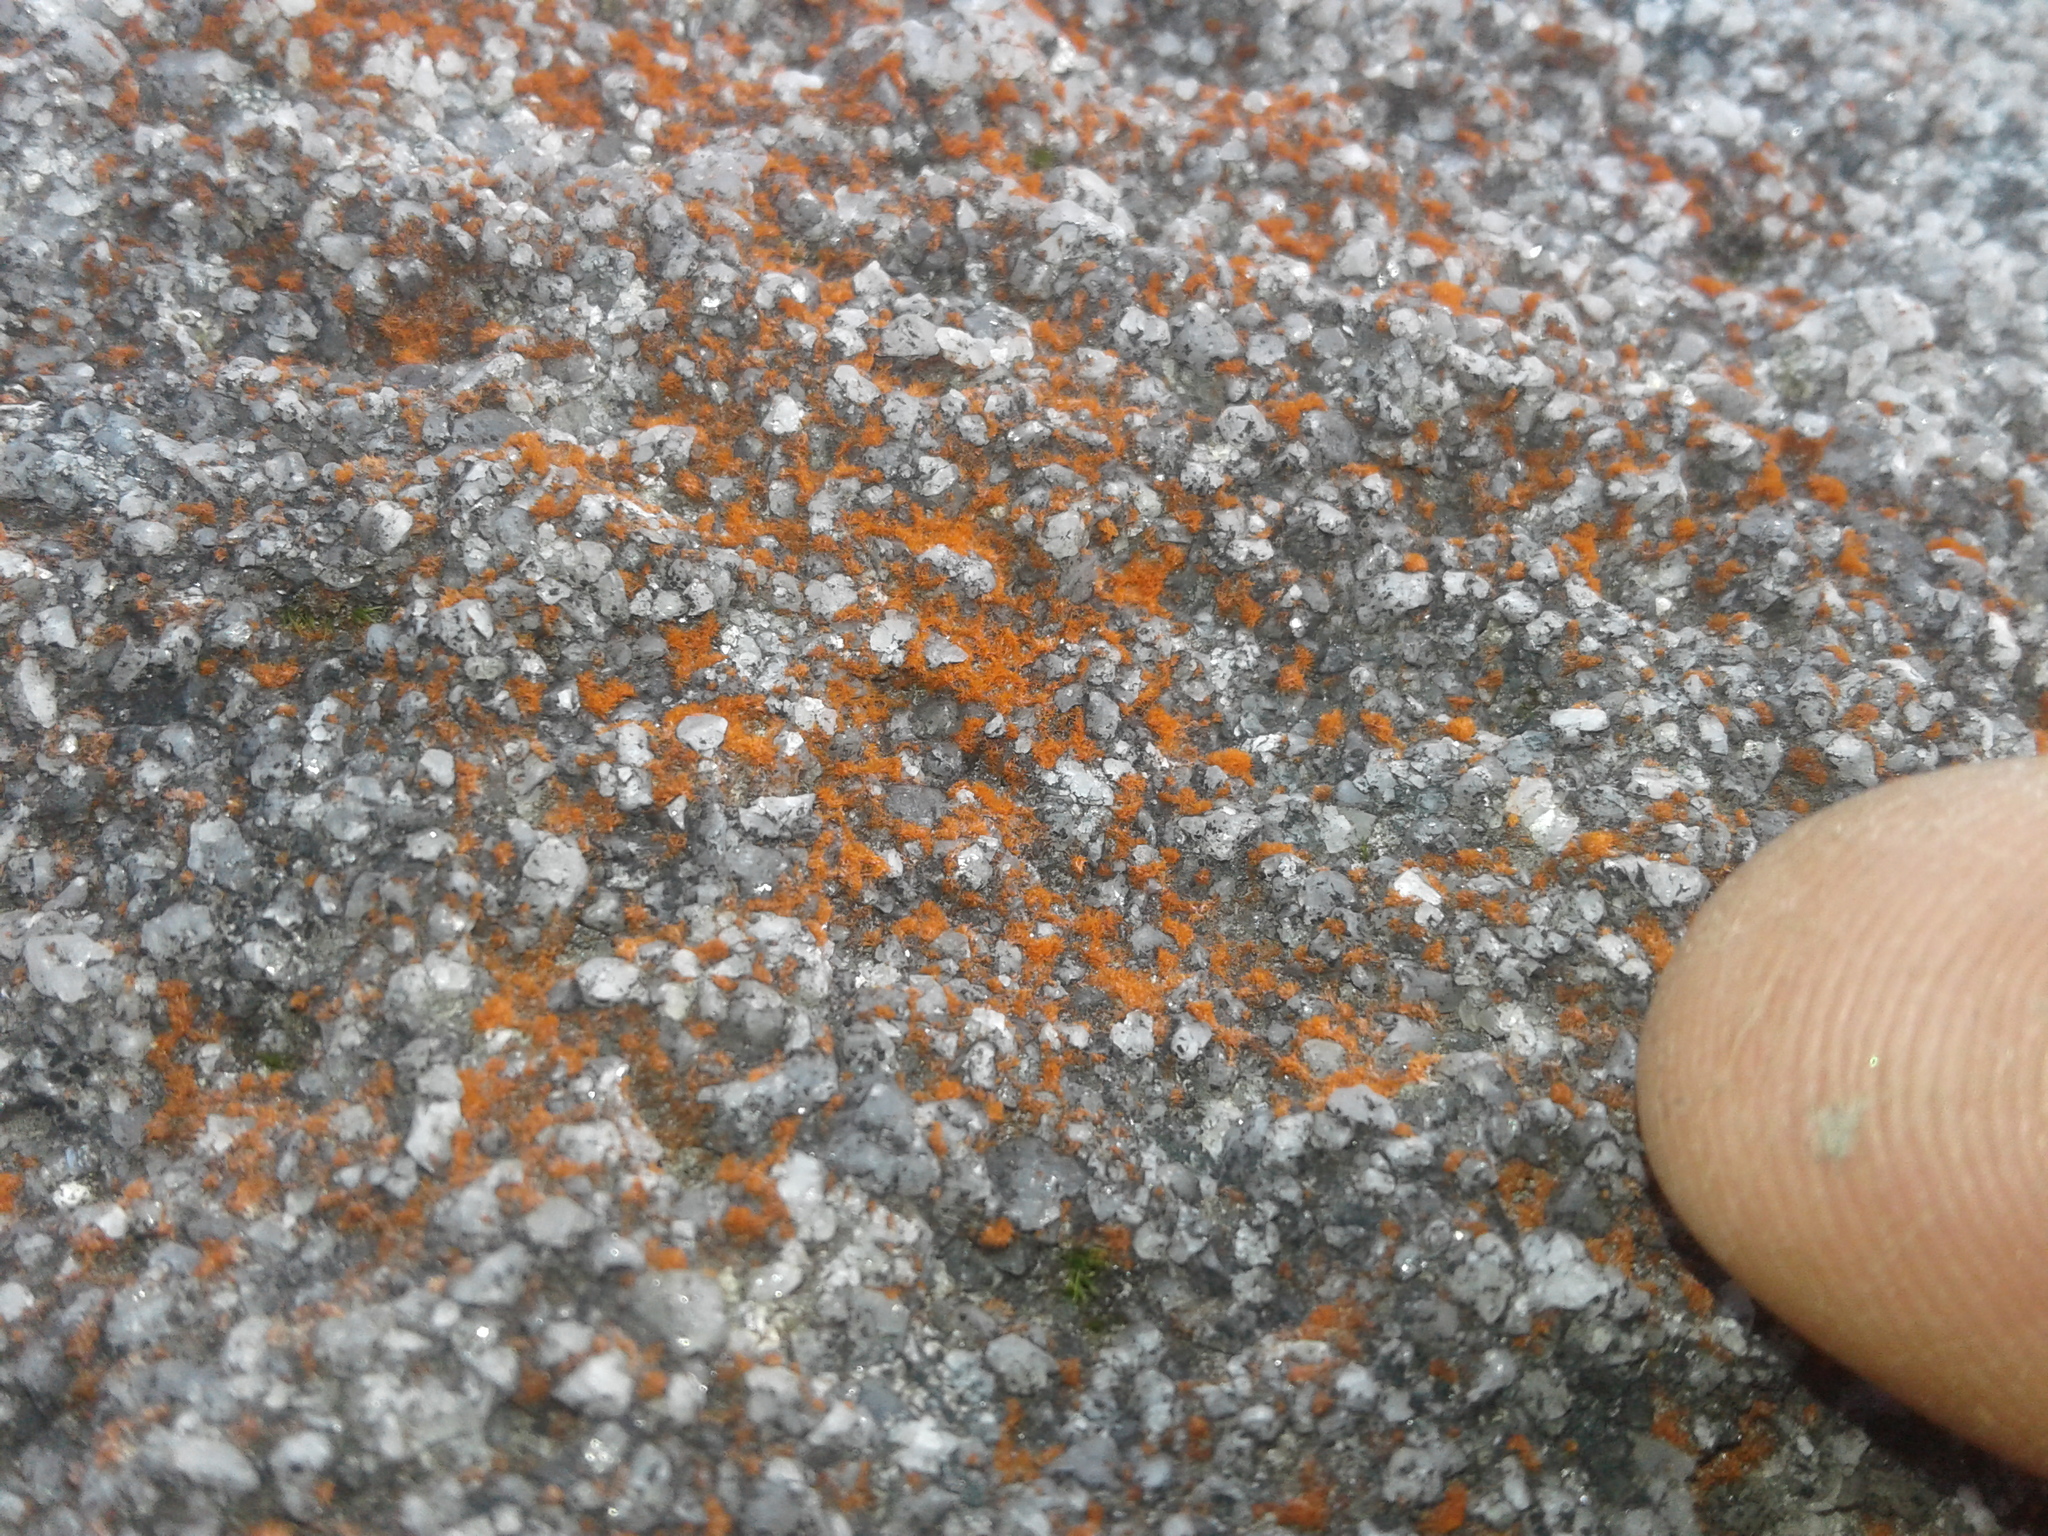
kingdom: Plantae
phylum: Chlorophyta
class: Ulvophyceae
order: Trentepohliales
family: Trentepohliaceae
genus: Trentepohlia
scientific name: Trentepohlia
